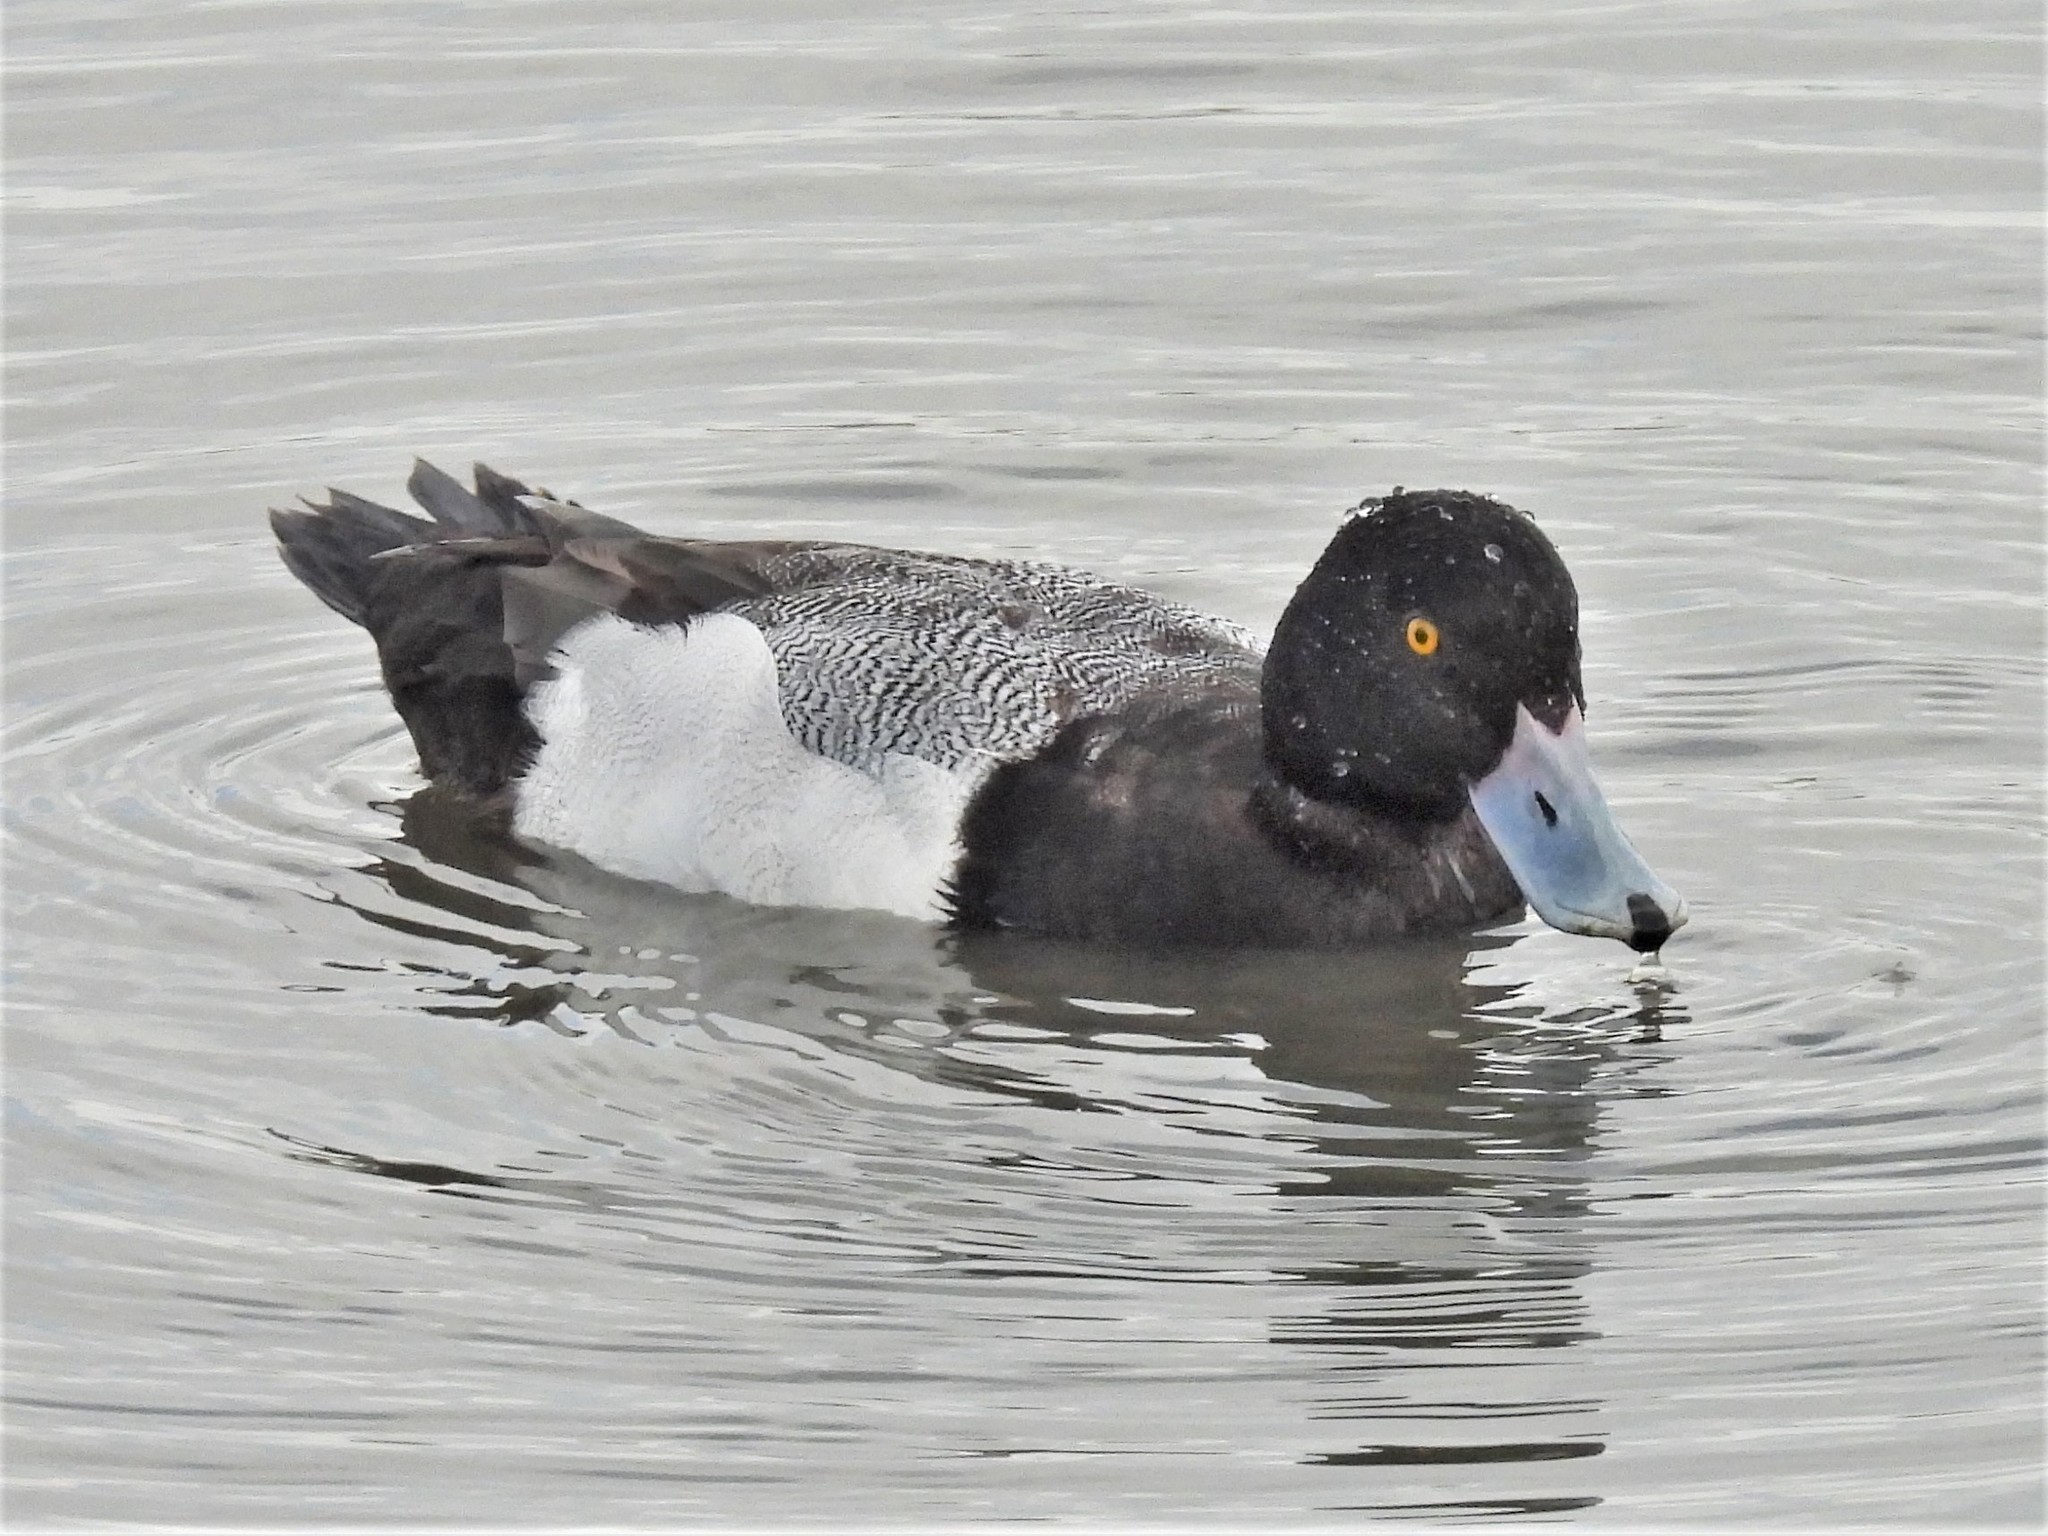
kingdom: Animalia
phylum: Chordata
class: Aves
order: Anseriformes
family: Anatidae
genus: Aythya
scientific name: Aythya marila
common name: Greater scaup
